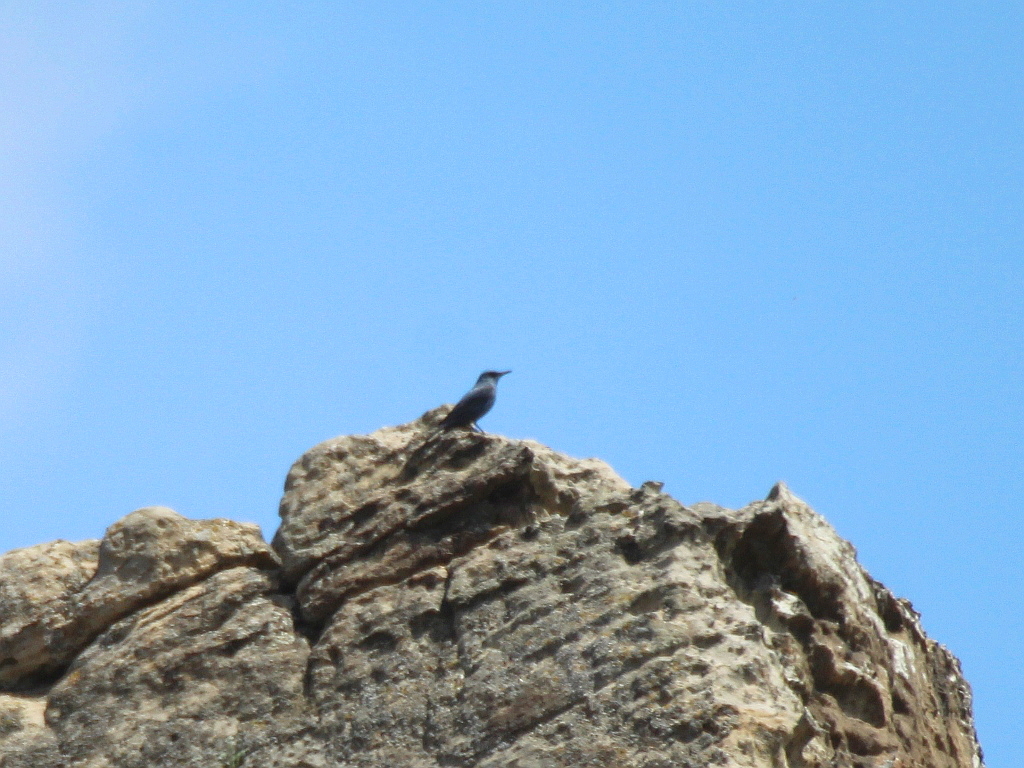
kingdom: Animalia
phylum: Chordata
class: Aves
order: Passeriformes
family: Muscicapidae
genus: Monticola
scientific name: Monticola solitarius
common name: Blue rock thrush
